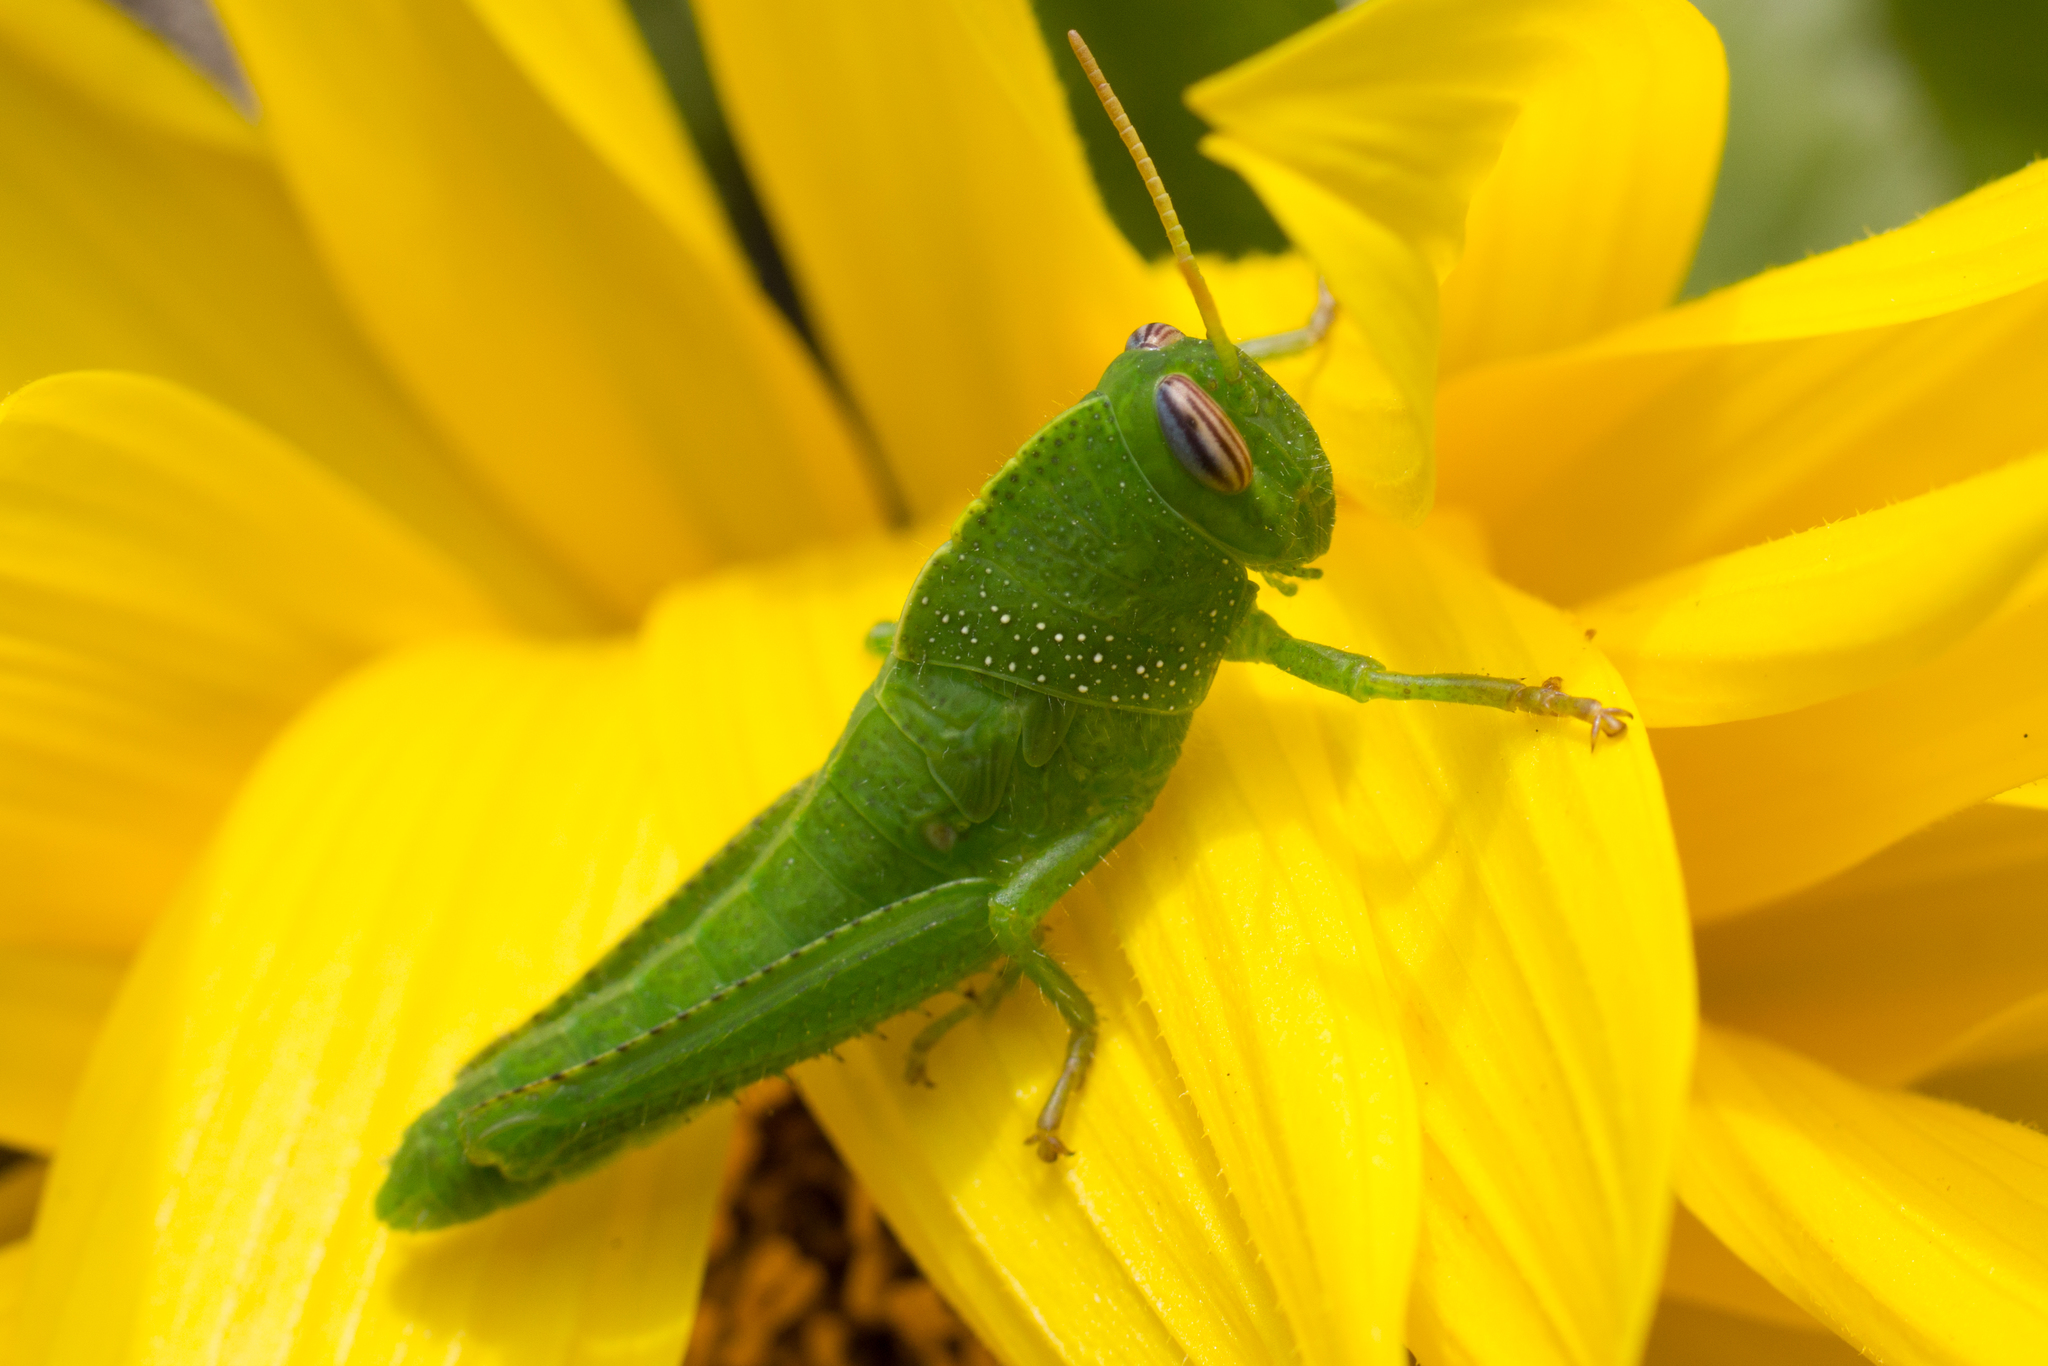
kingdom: Animalia
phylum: Arthropoda
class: Insecta
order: Orthoptera
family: Acrididae
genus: Anacridium
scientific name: Anacridium aegyptium
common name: Egyptian grasshopper
